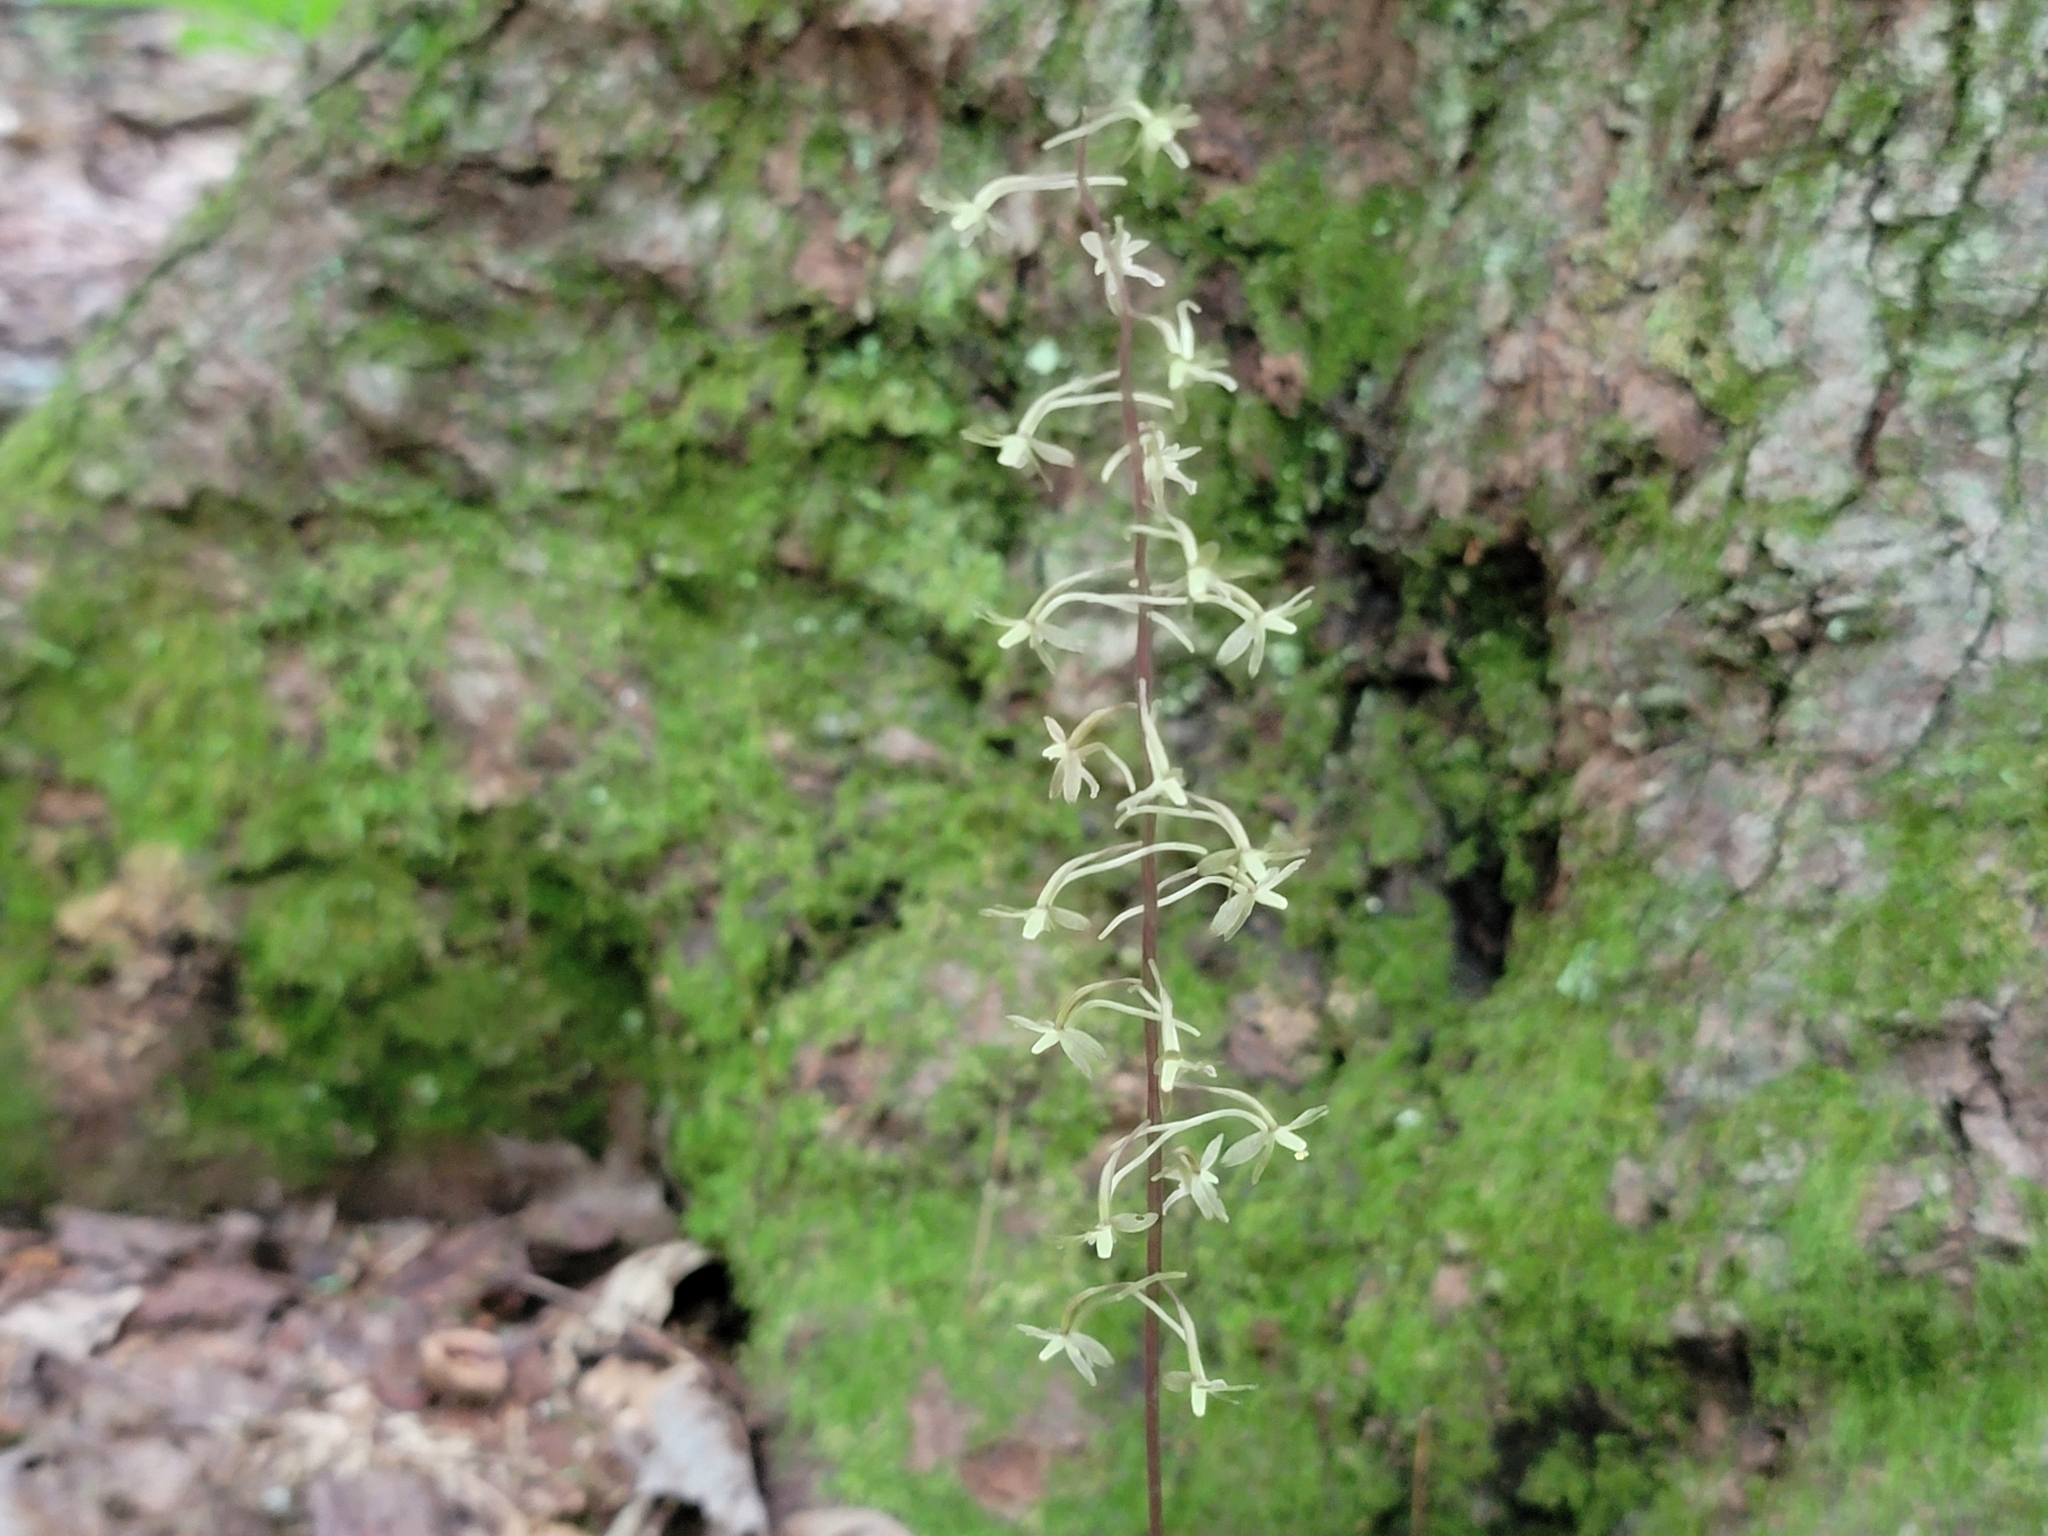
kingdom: Plantae
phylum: Tracheophyta
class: Liliopsida
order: Asparagales
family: Orchidaceae
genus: Tipularia
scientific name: Tipularia discolor
